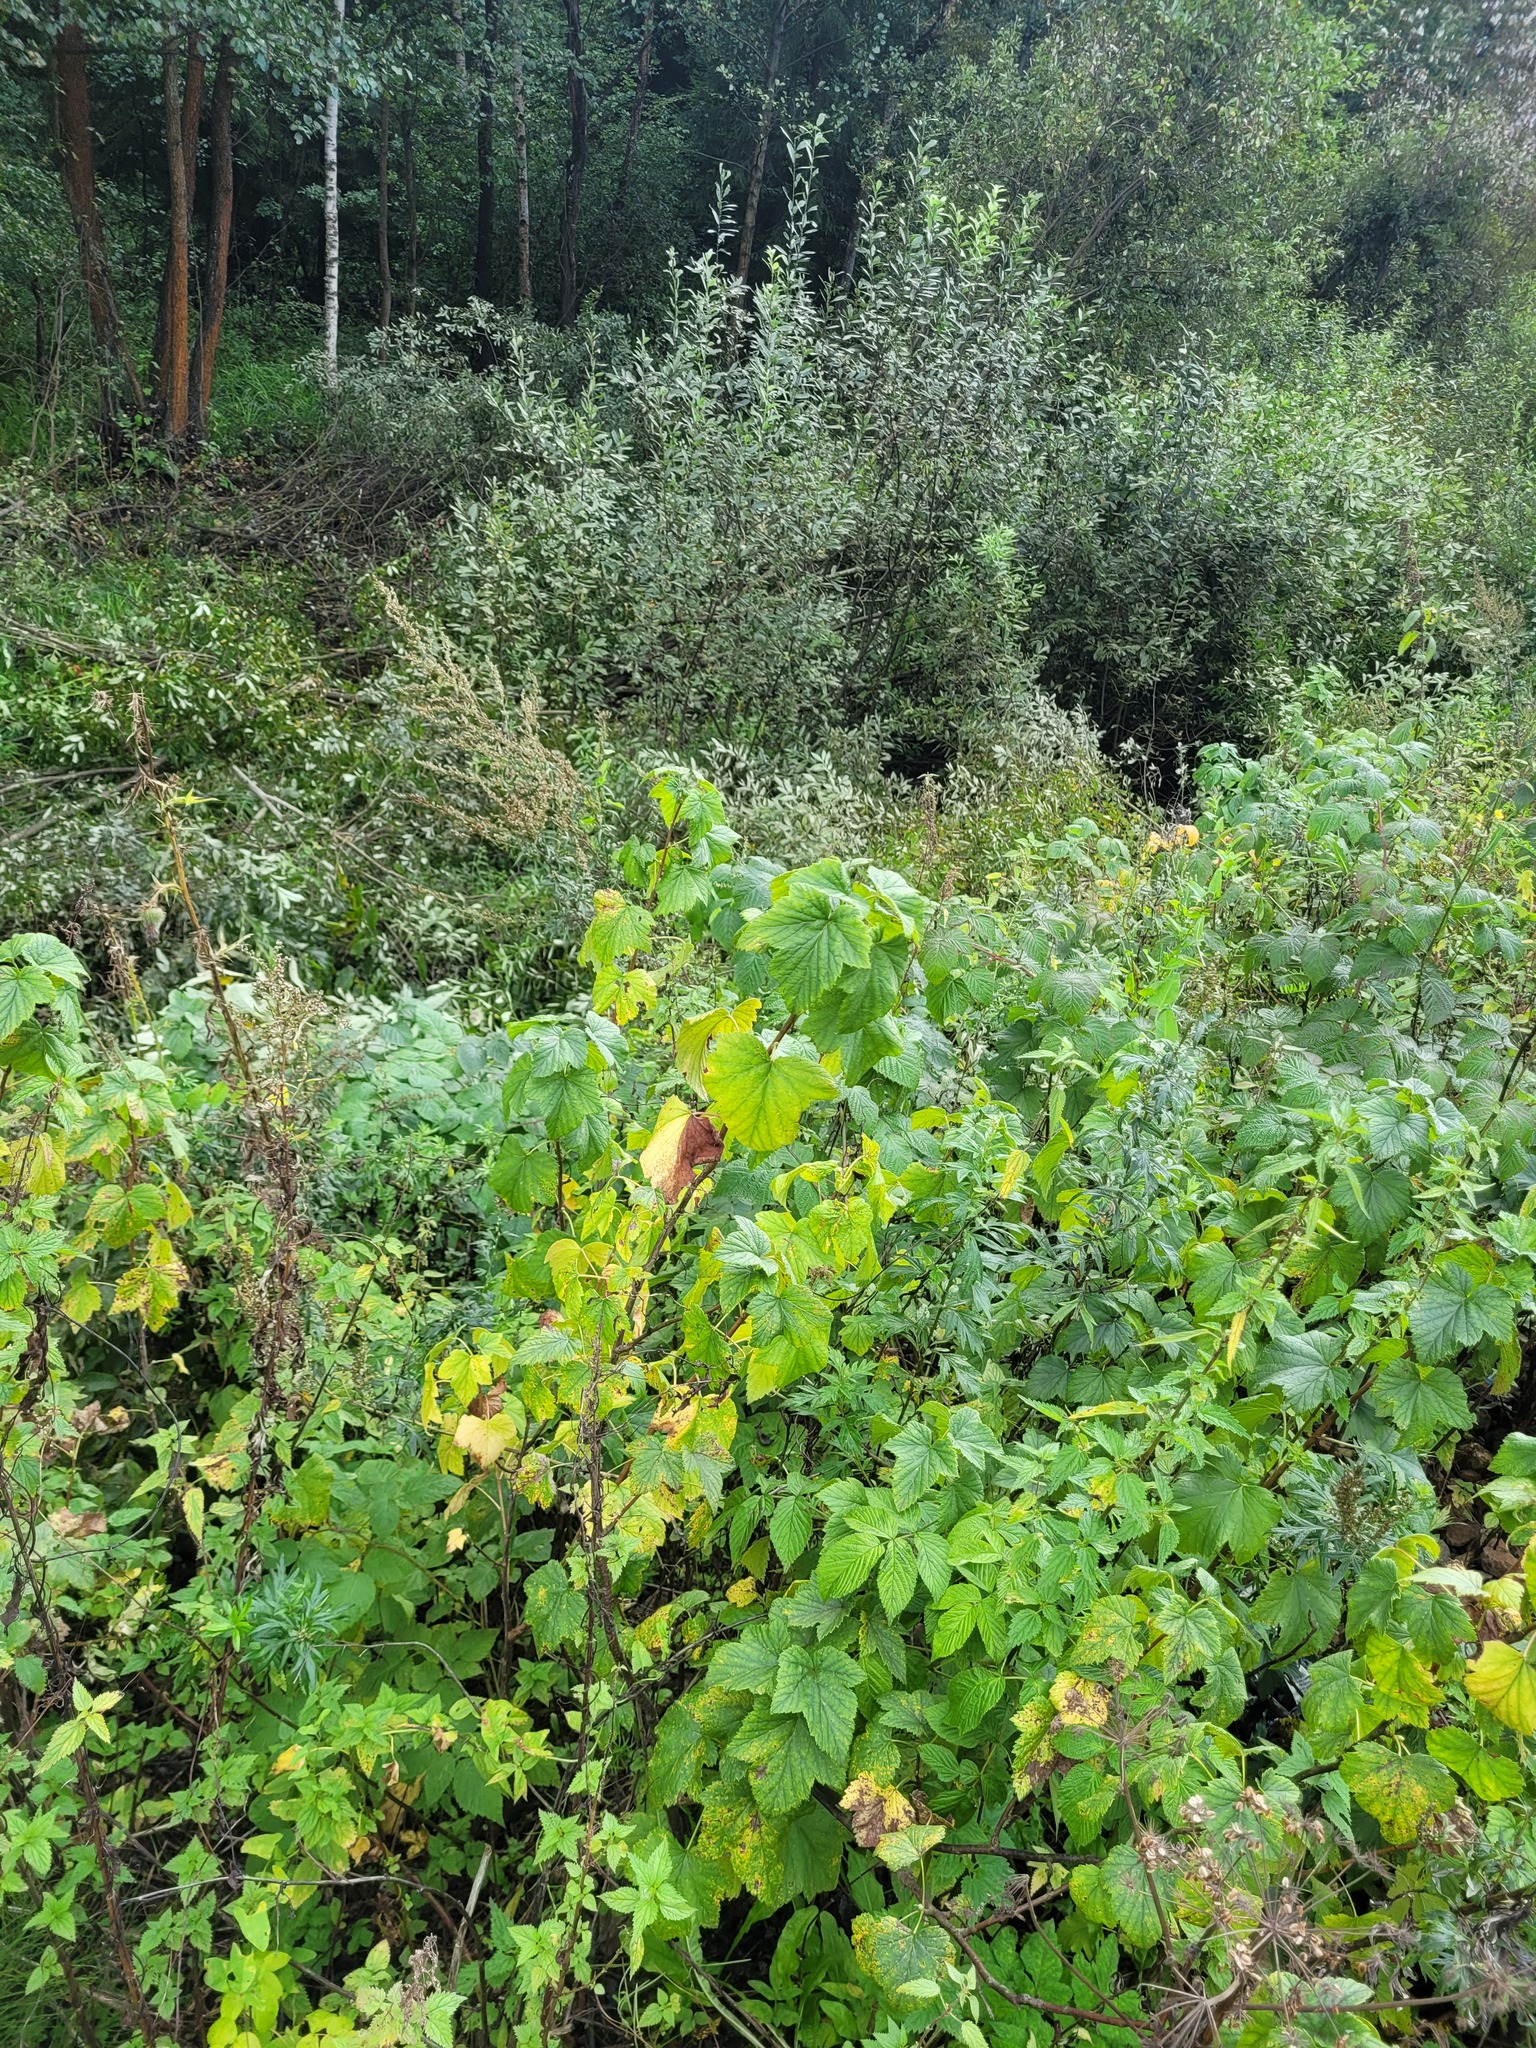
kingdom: Plantae
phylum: Tracheophyta
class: Magnoliopsida
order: Saxifragales
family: Grossulariaceae
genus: Ribes
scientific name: Ribes nigrum
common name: Black currant
